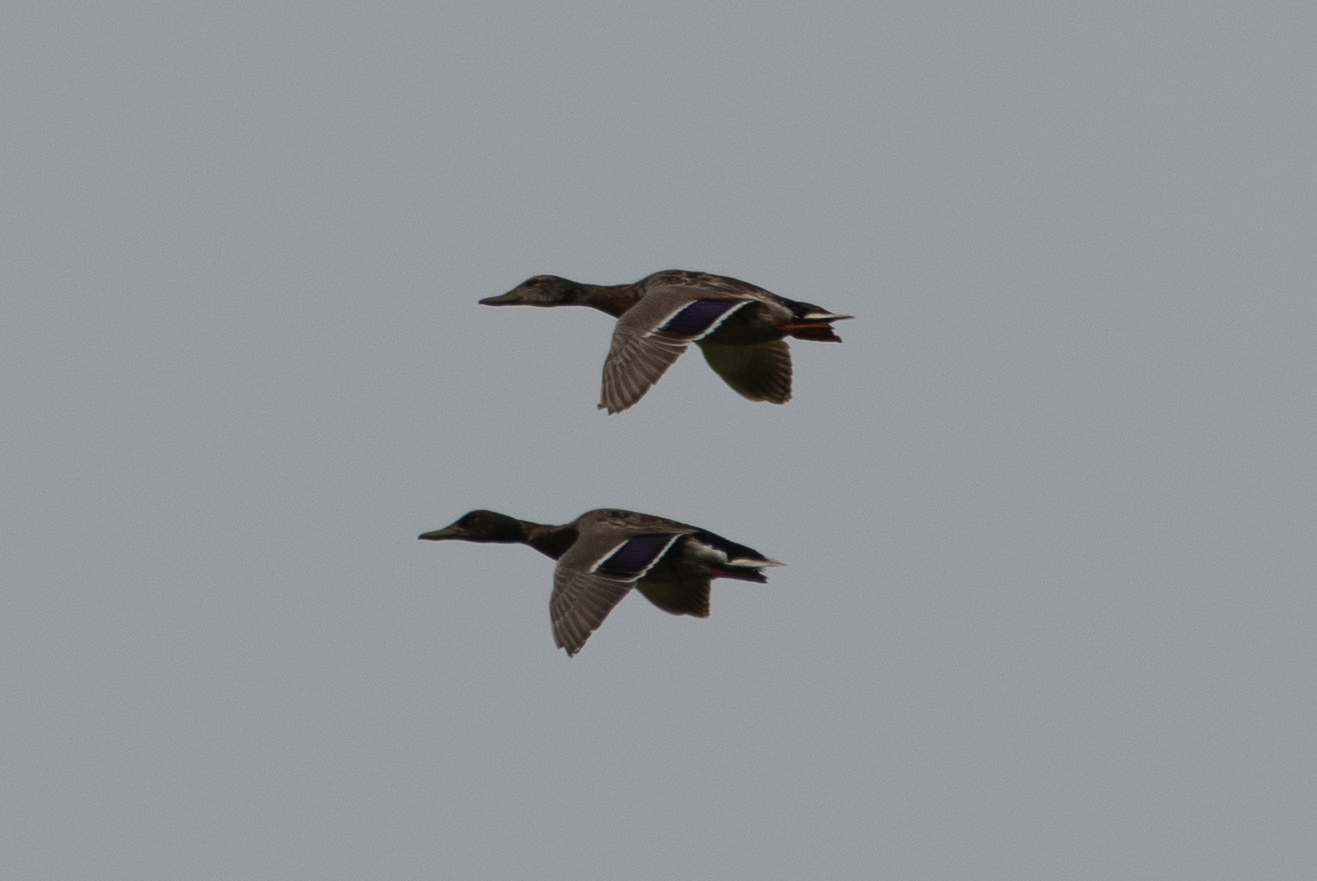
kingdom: Animalia
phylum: Chordata
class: Aves
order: Anseriformes
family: Anatidae
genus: Anas
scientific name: Anas platyrhynchos
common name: Mallard
